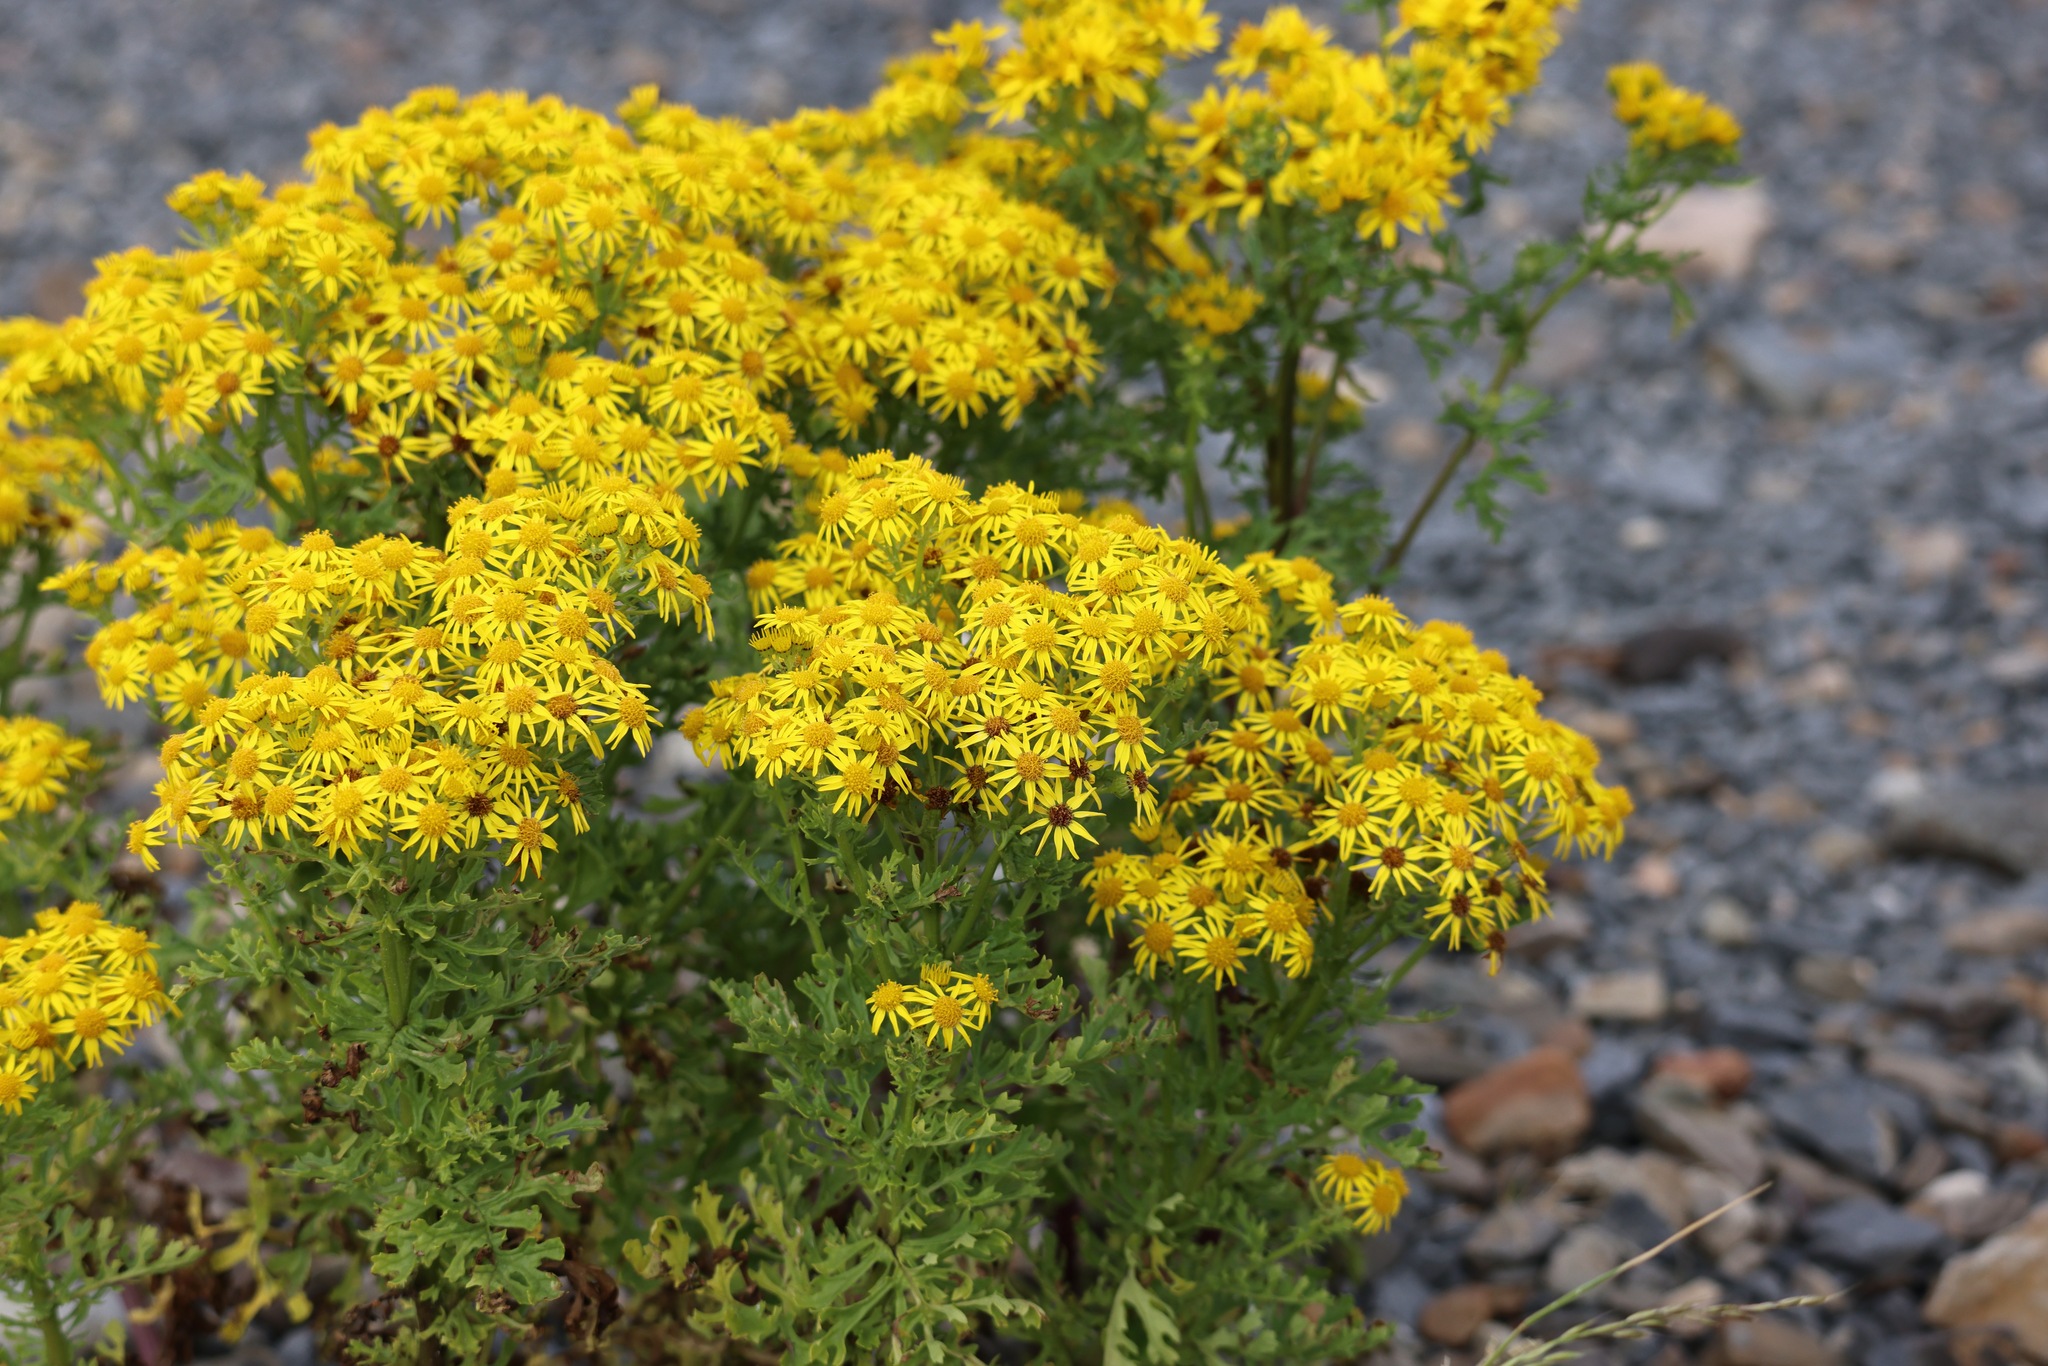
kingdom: Plantae
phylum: Tracheophyta
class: Magnoliopsida
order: Asterales
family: Asteraceae
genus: Jacobaea
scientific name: Jacobaea vulgaris
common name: Stinking willie
